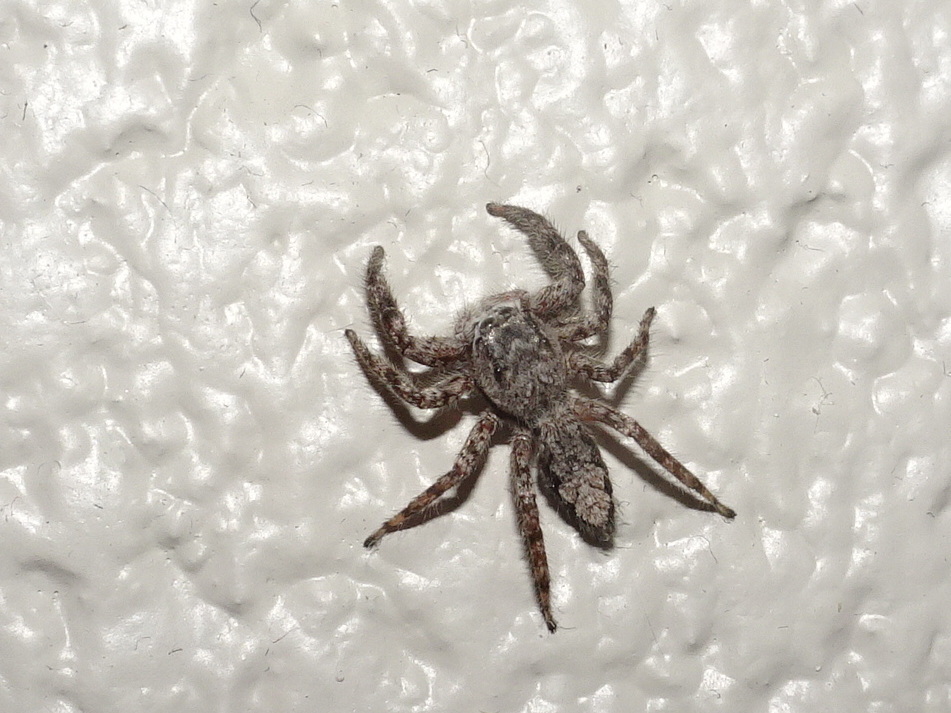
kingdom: Animalia
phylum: Arthropoda
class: Arachnida
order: Araneae
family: Salticidae
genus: Platycryptus
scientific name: Platycryptus undatus
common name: Tan jumping spider
